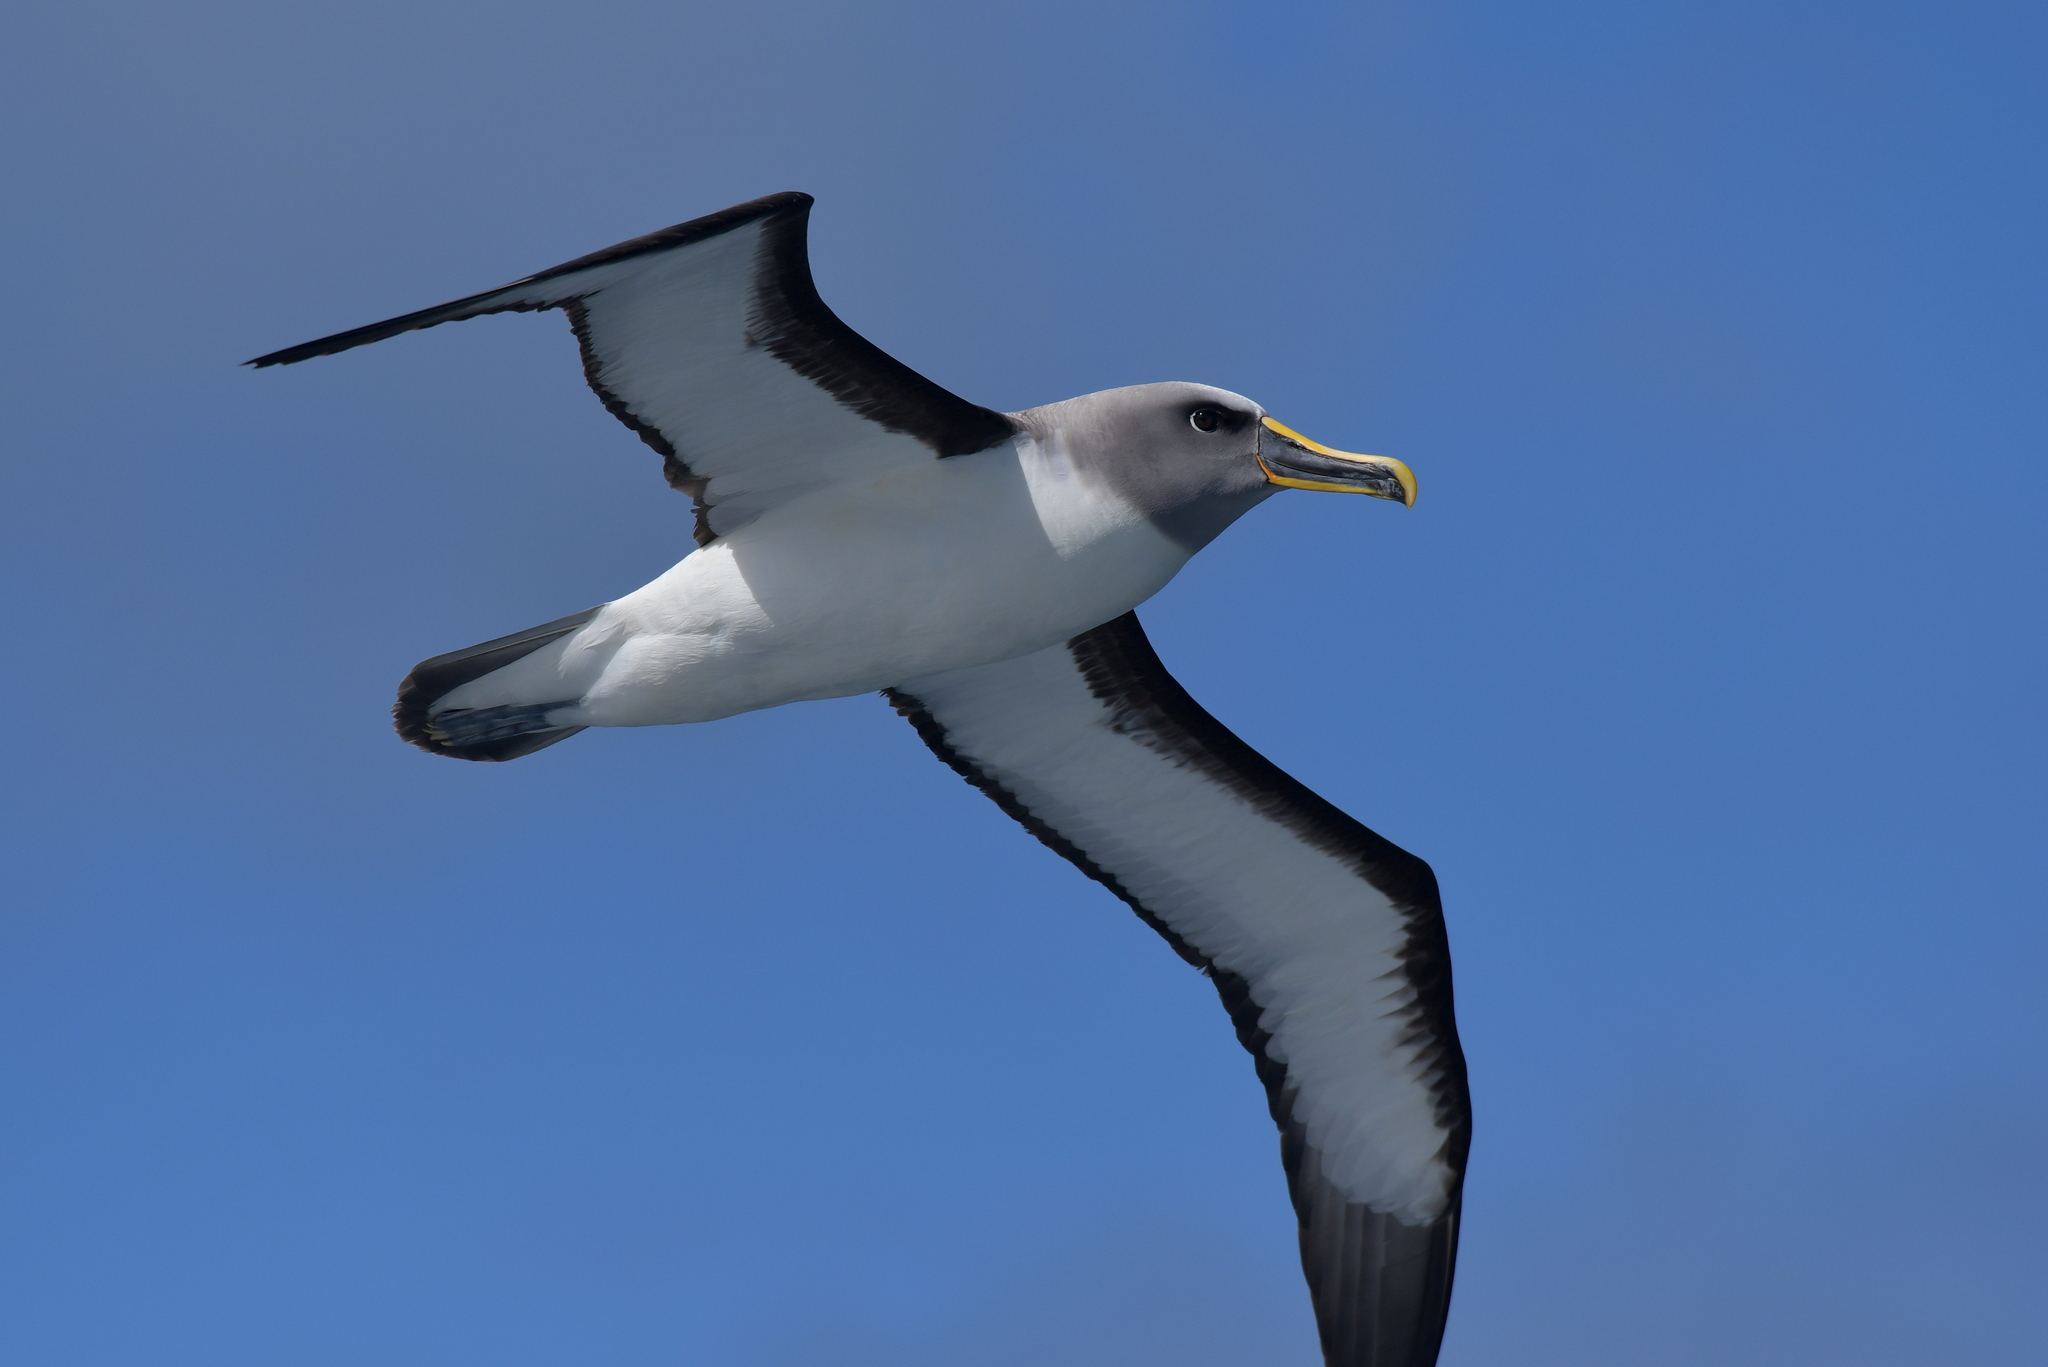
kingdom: Animalia
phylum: Chordata
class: Aves
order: Procellariiformes
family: Diomedeidae
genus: Thalassarche
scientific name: Thalassarche bulleri
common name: Buller's albatross
